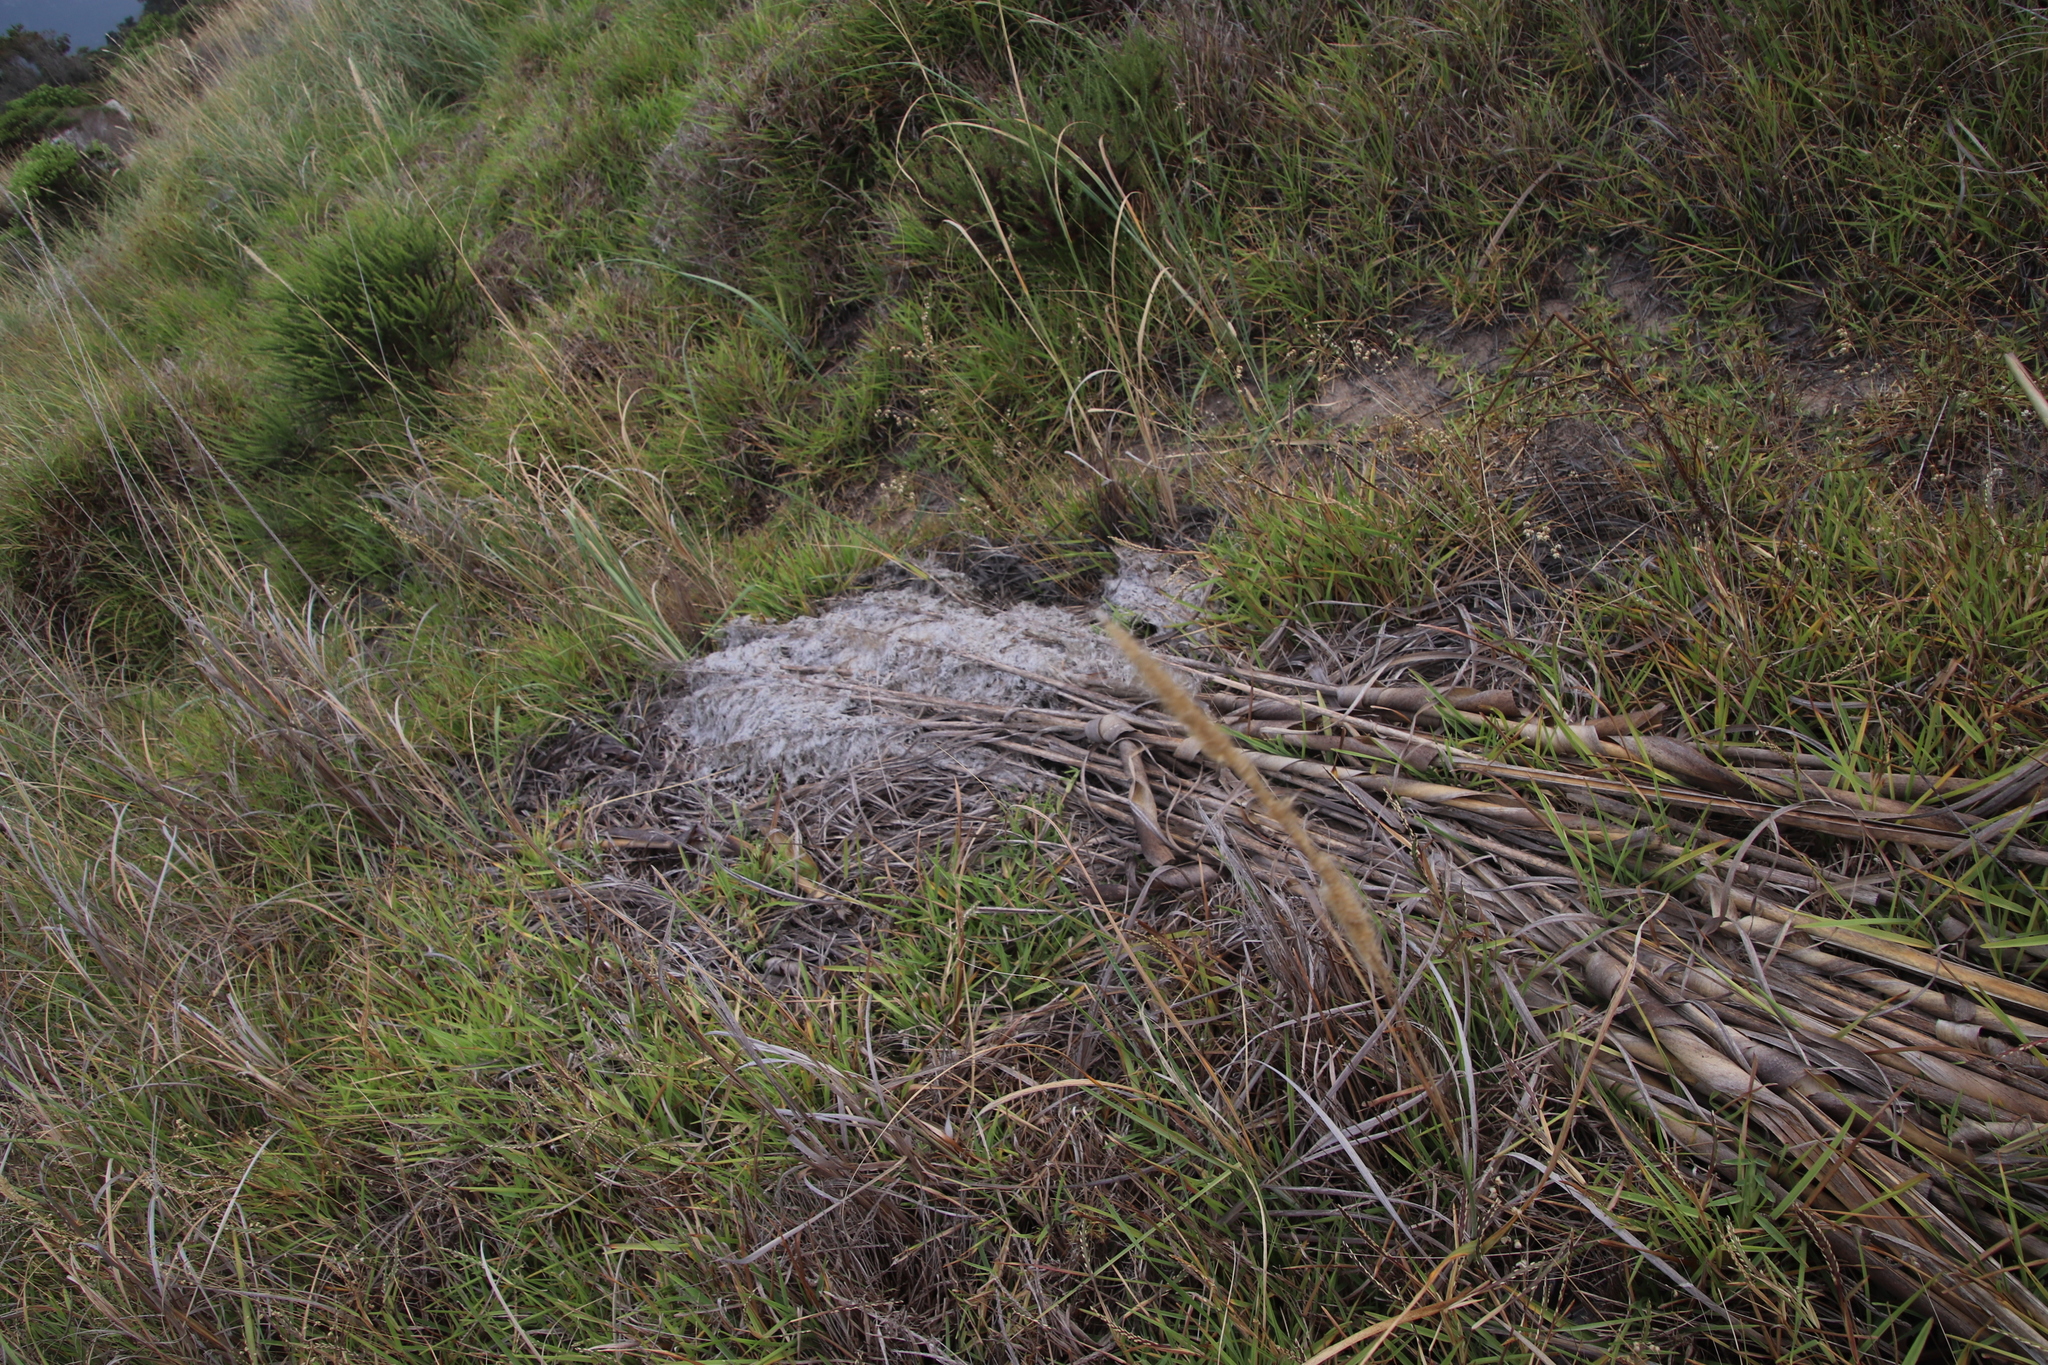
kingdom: Plantae
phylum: Tracheophyta
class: Liliopsida
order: Poales
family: Poaceae
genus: Cortaderia
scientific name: Cortaderia selloana
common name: Uruguayan pampas grass
